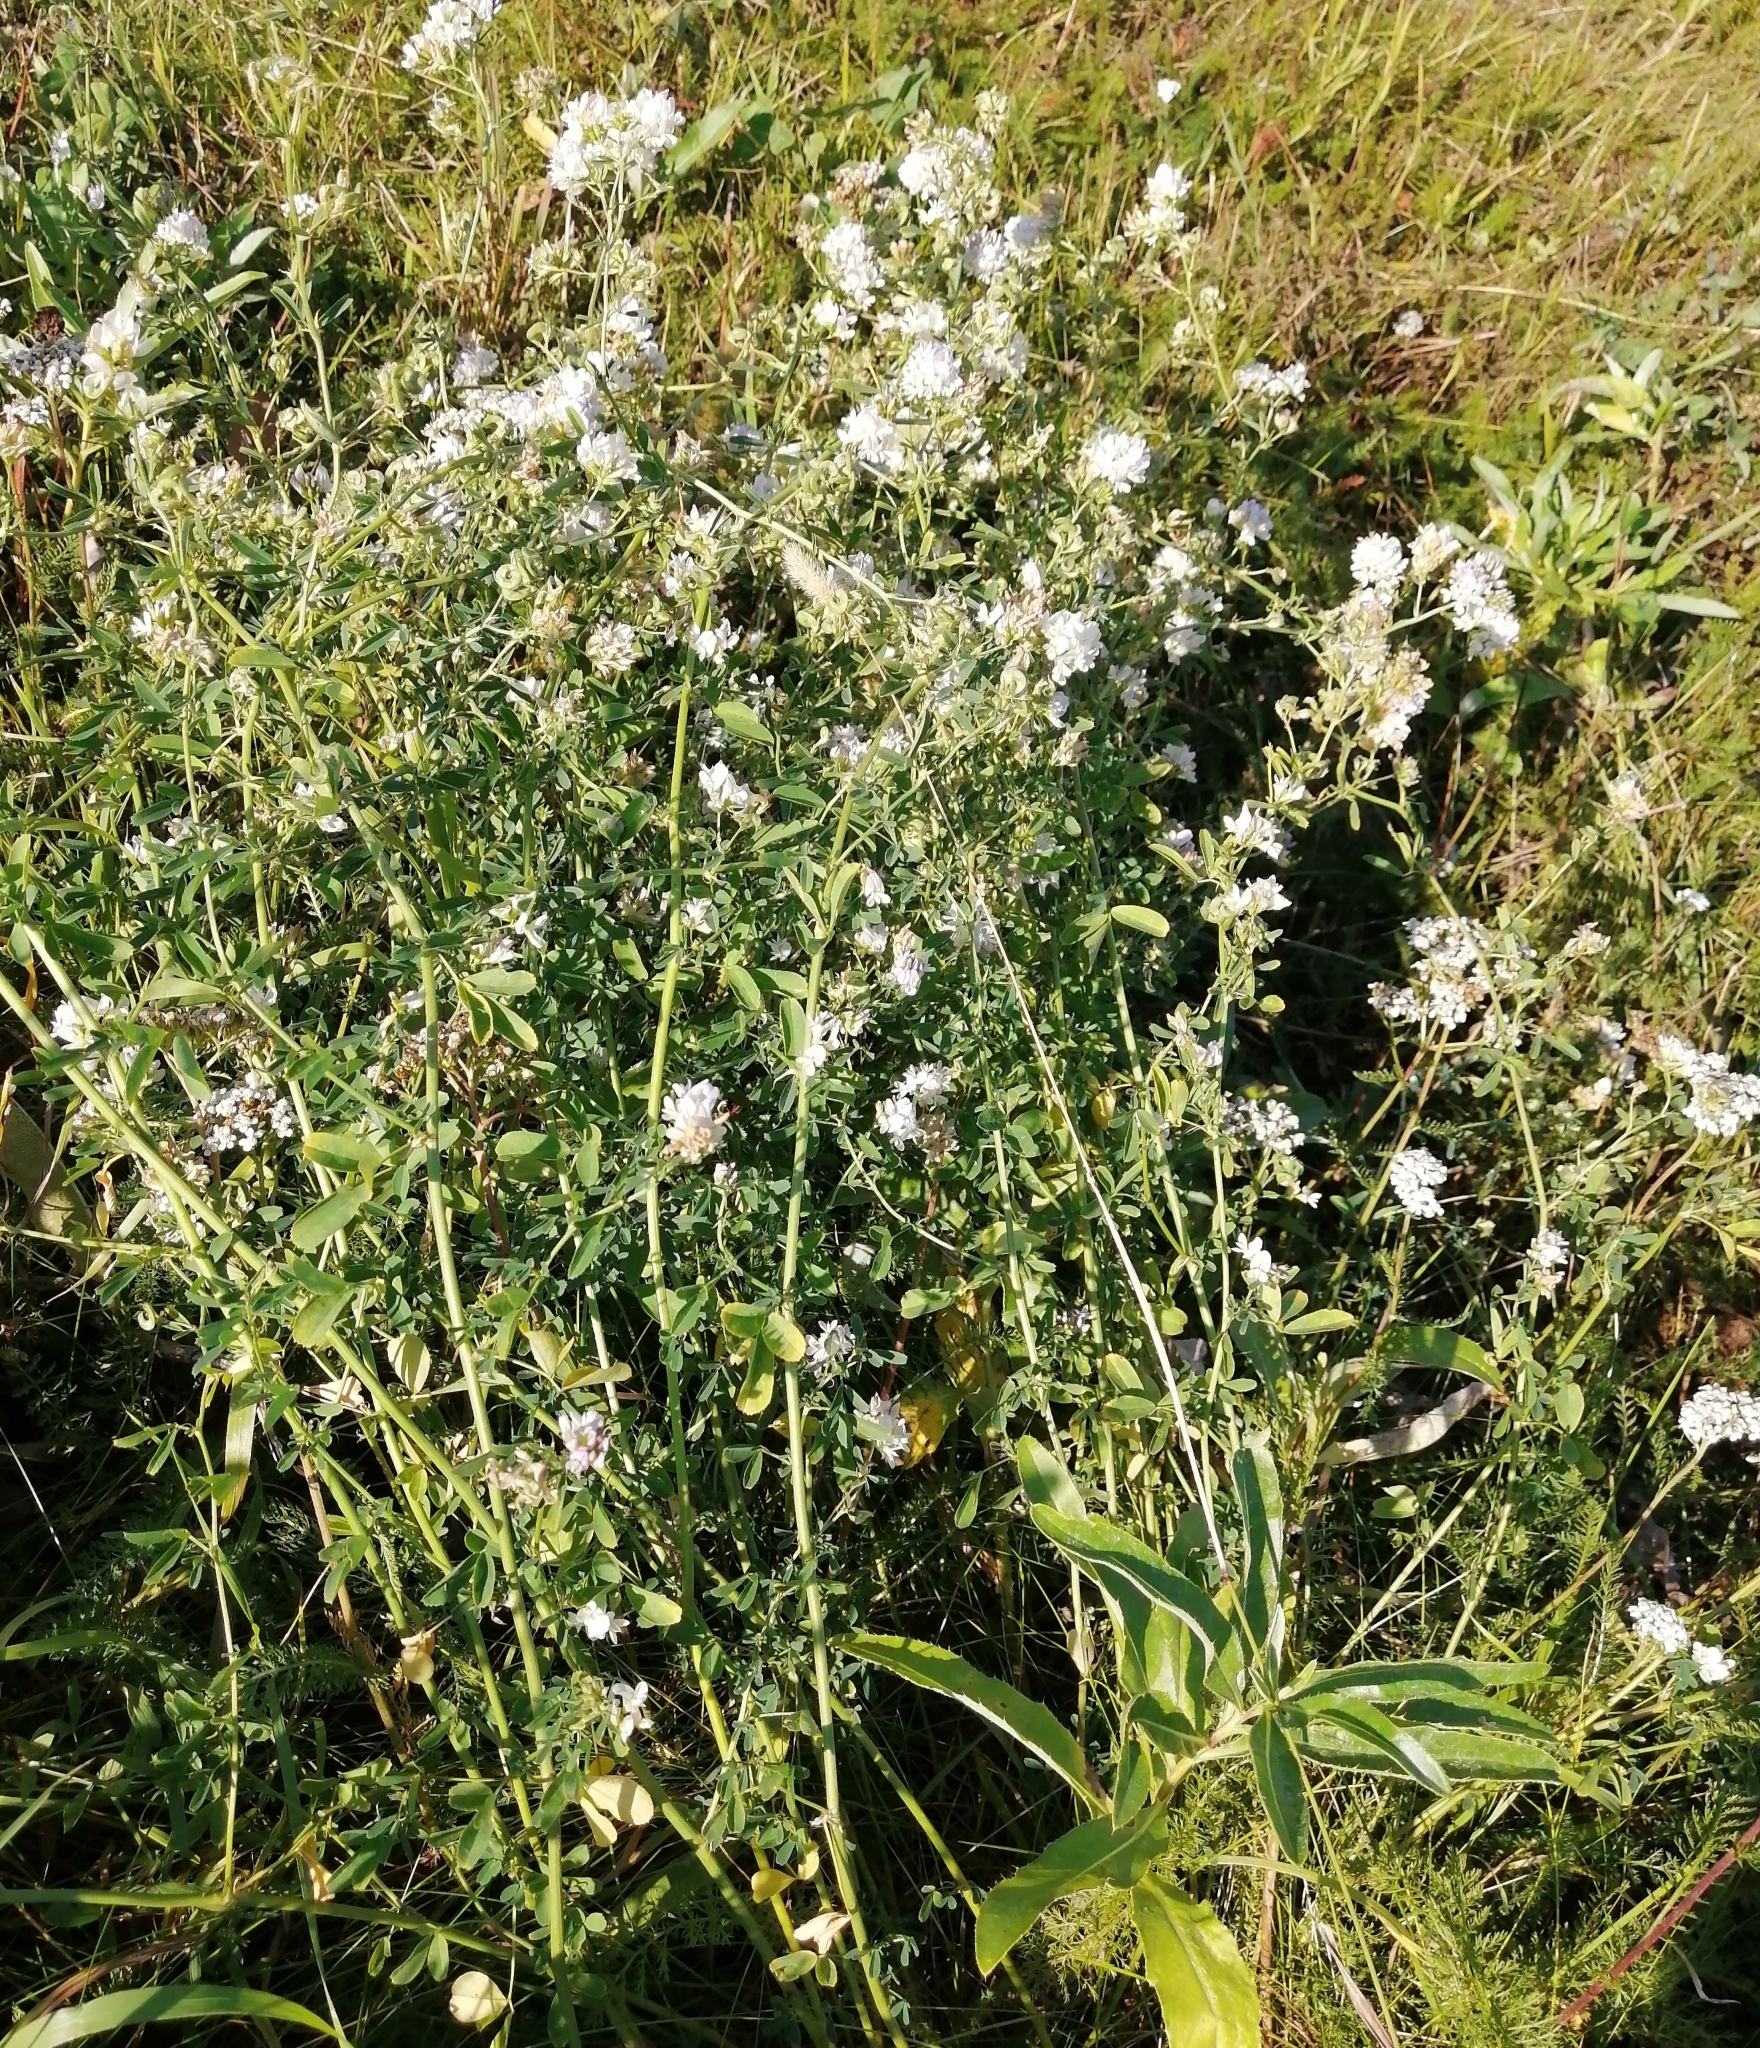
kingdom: Plantae
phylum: Tracheophyta
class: Magnoliopsida
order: Fabales
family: Fabaceae
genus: Medicago
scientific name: Medicago varia
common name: Sand lucerne
